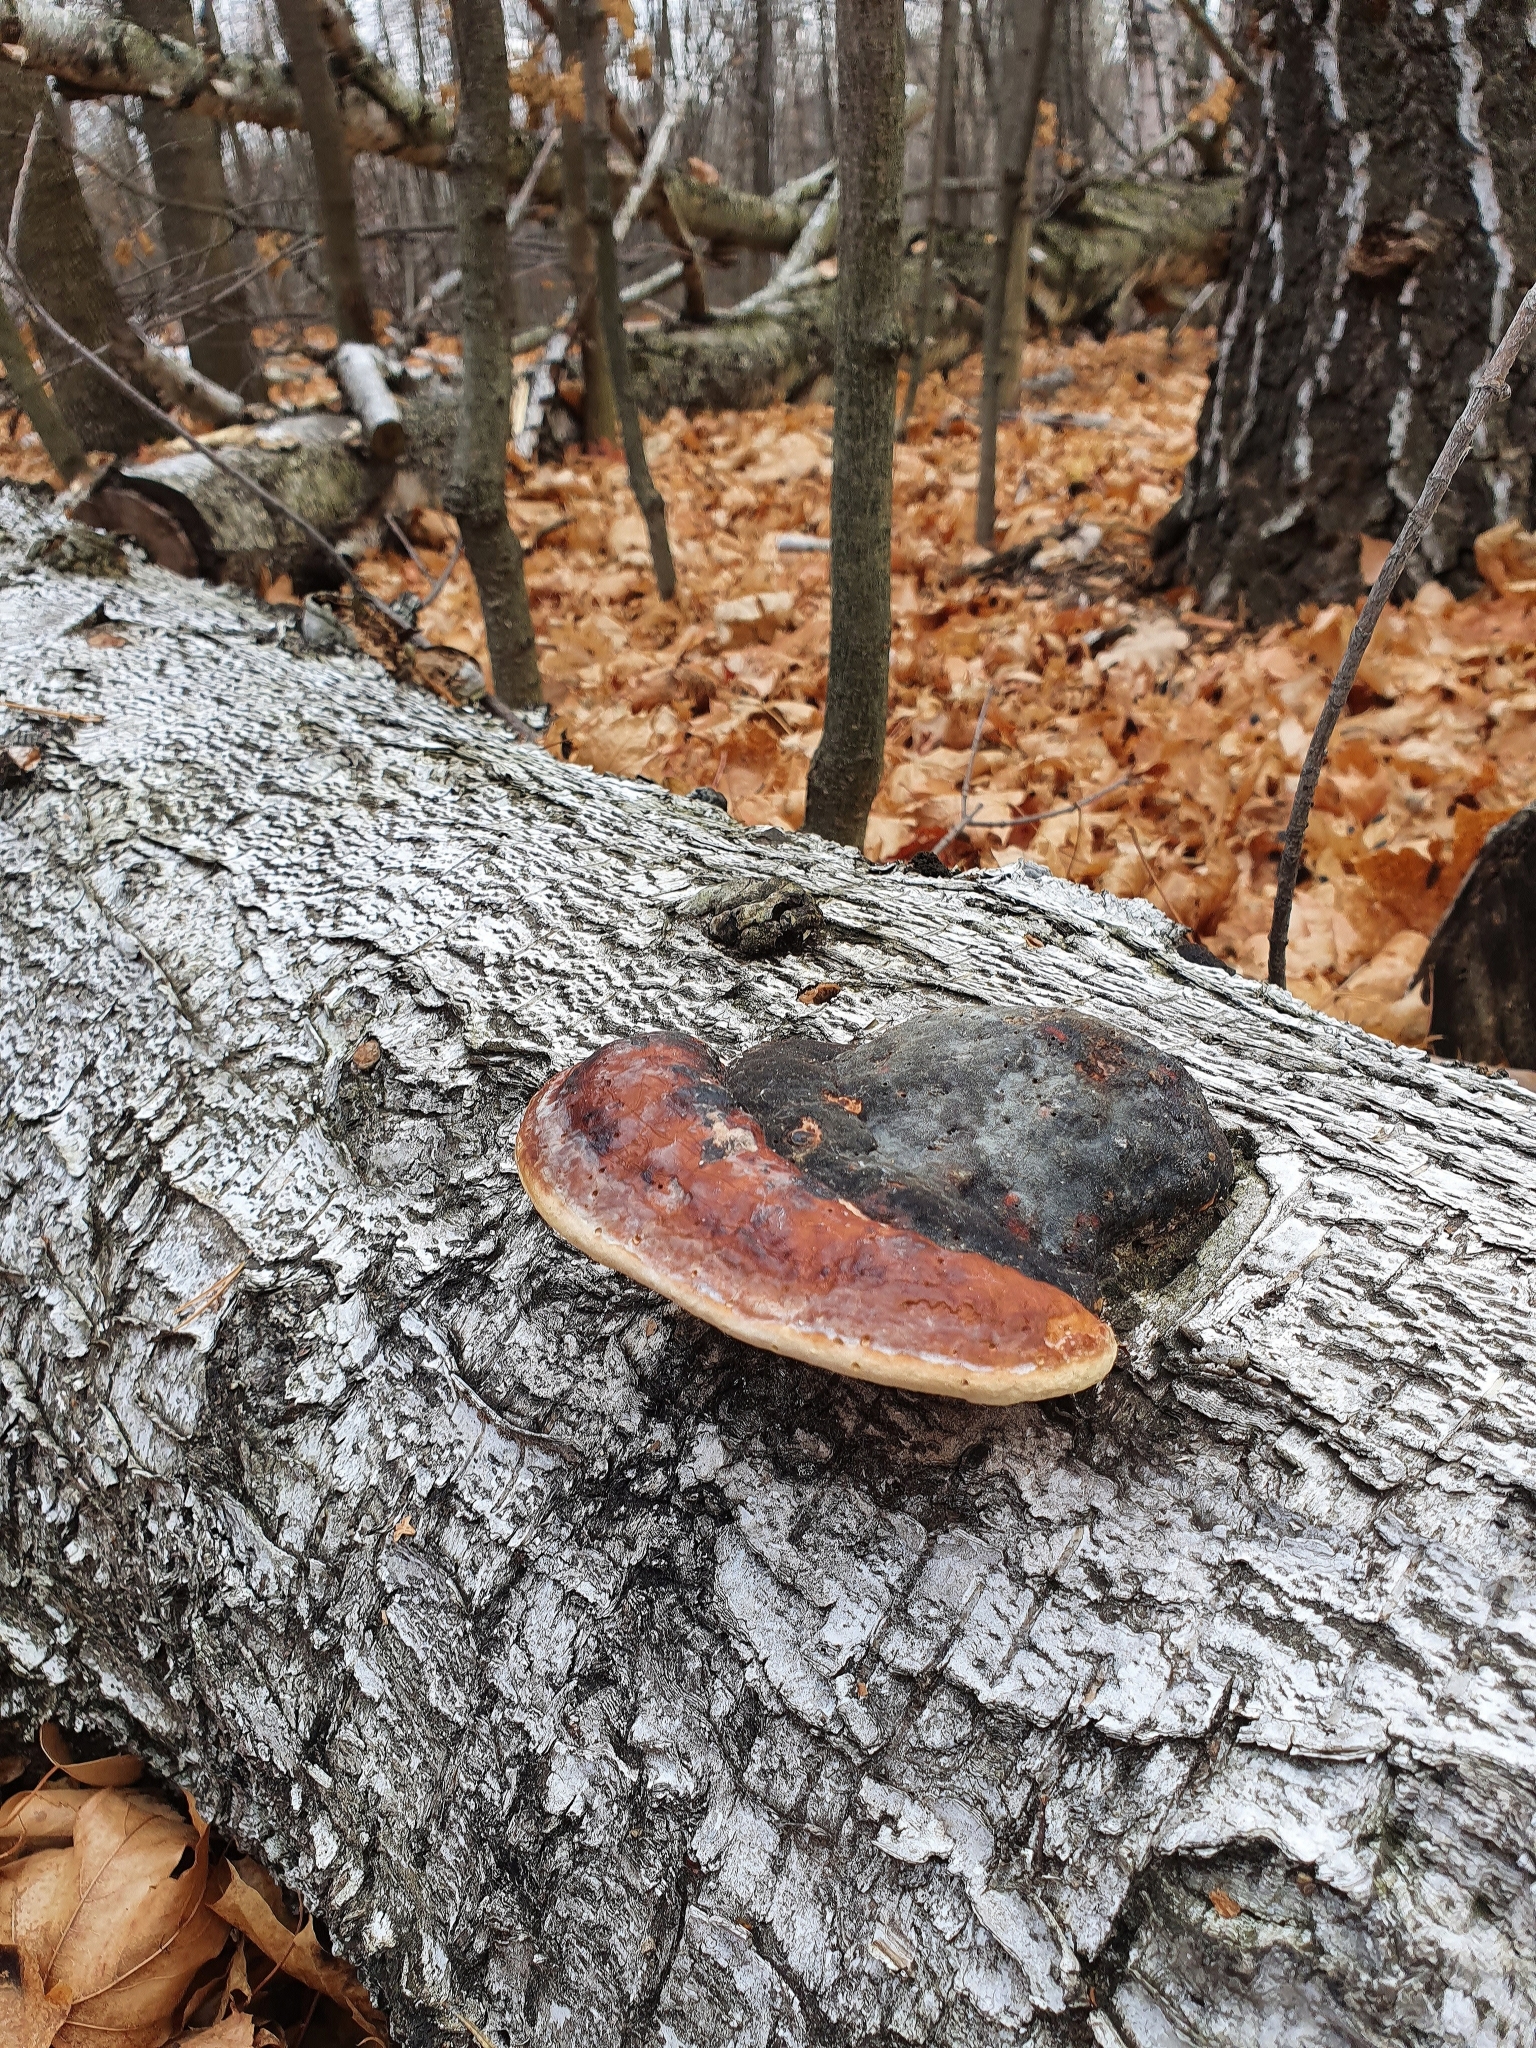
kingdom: Fungi
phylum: Basidiomycota
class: Agaricomycetes
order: Polyporales
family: Fomitopsidaceae
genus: Fomitopsis
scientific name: Fomitopsis pinicola
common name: Red-belted bracket
